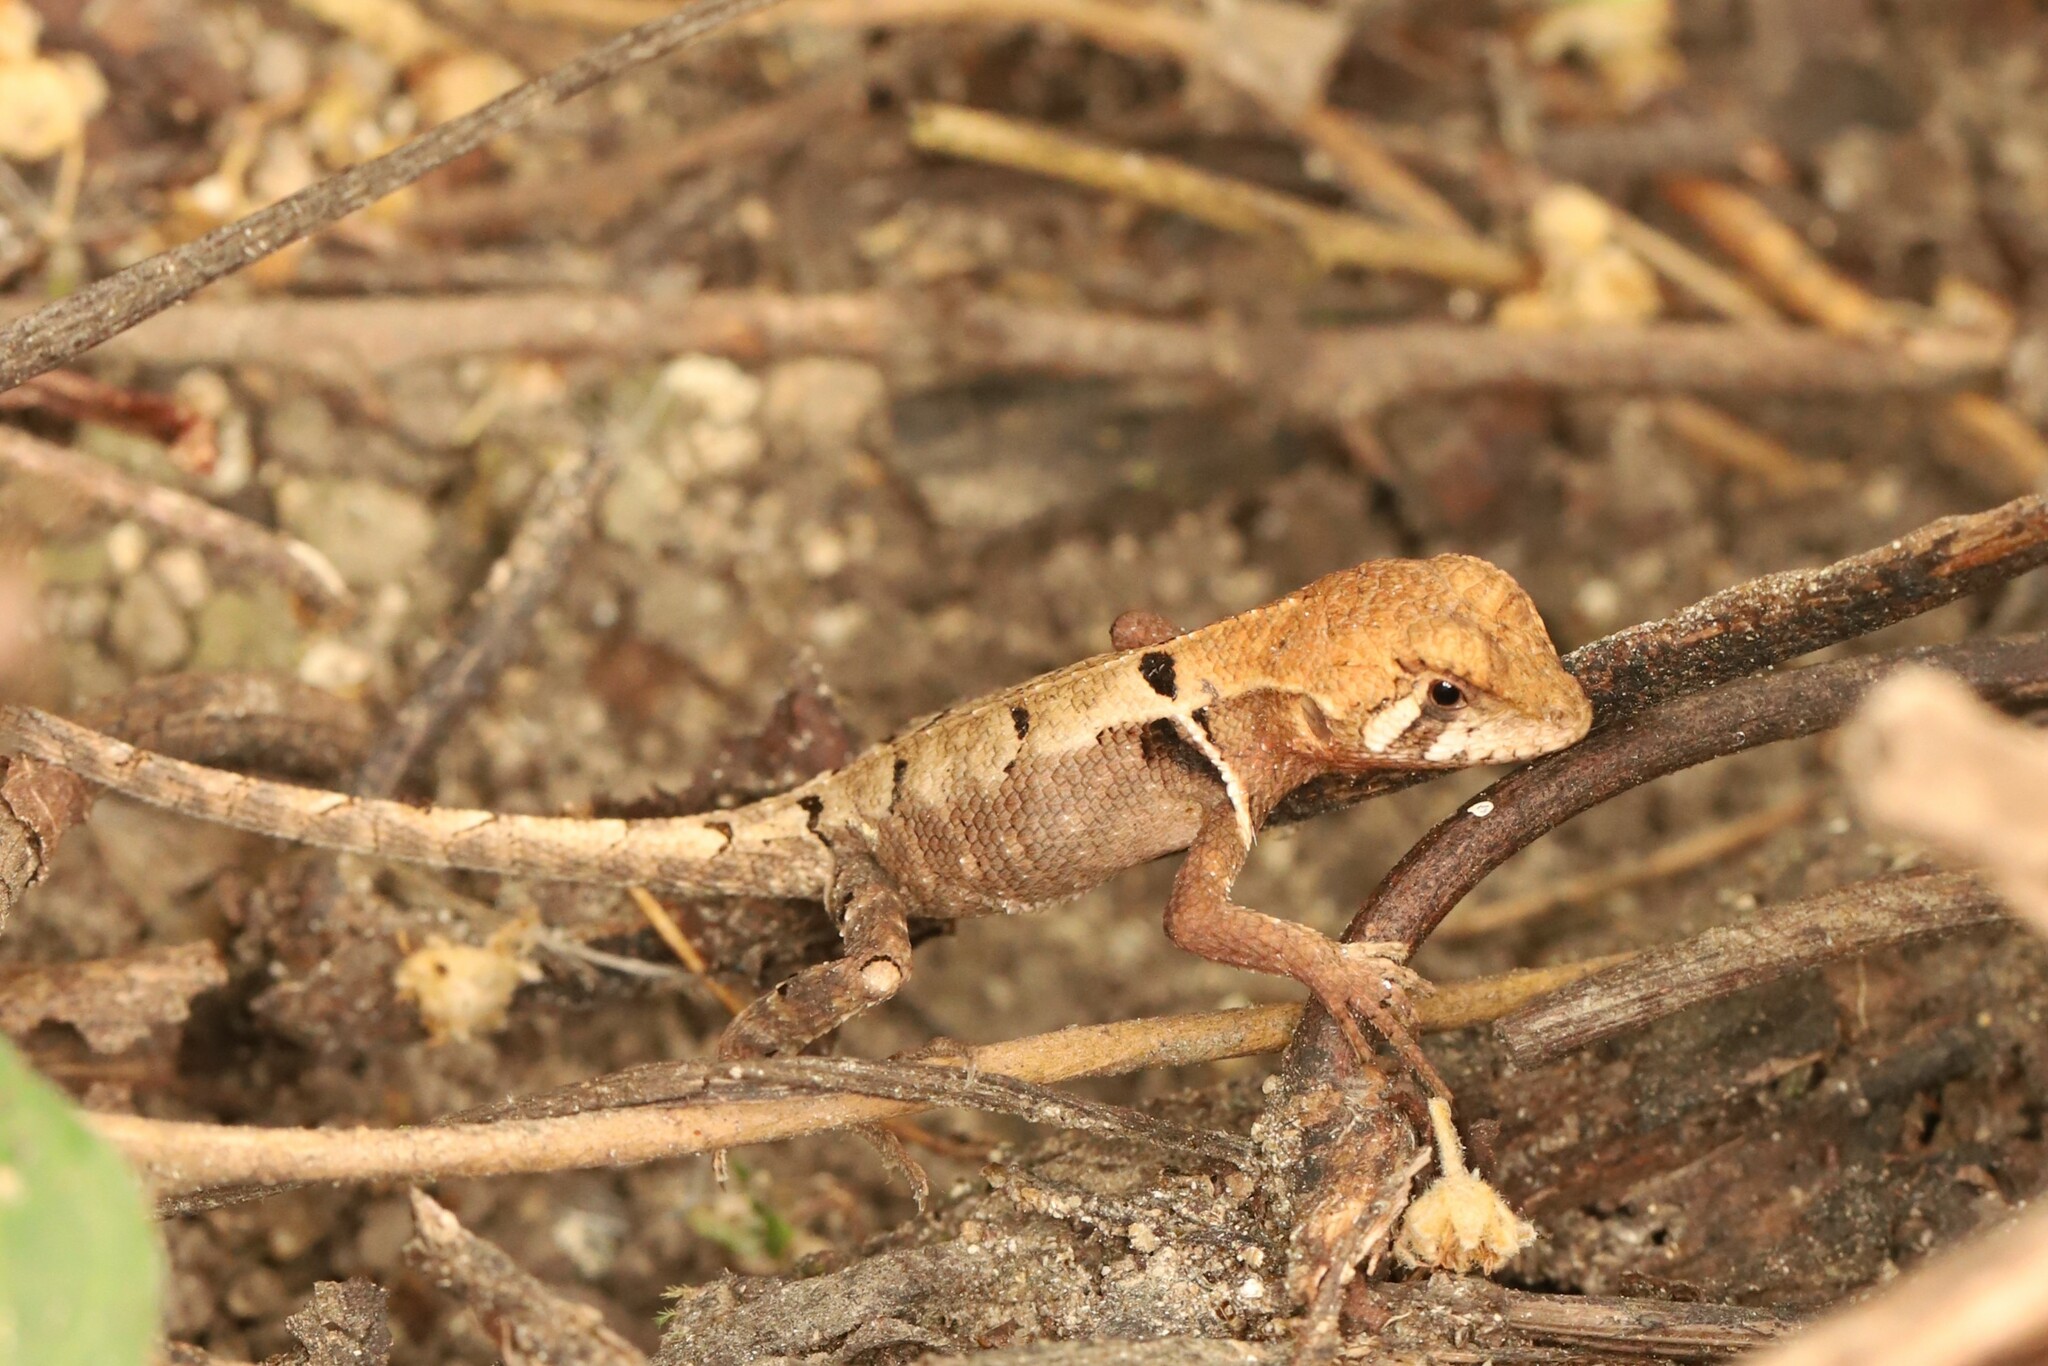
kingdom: Animalia
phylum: Chordata
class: Squamata
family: Tropiduridae
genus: Stenocercus
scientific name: Stenocercus erythrogaster
